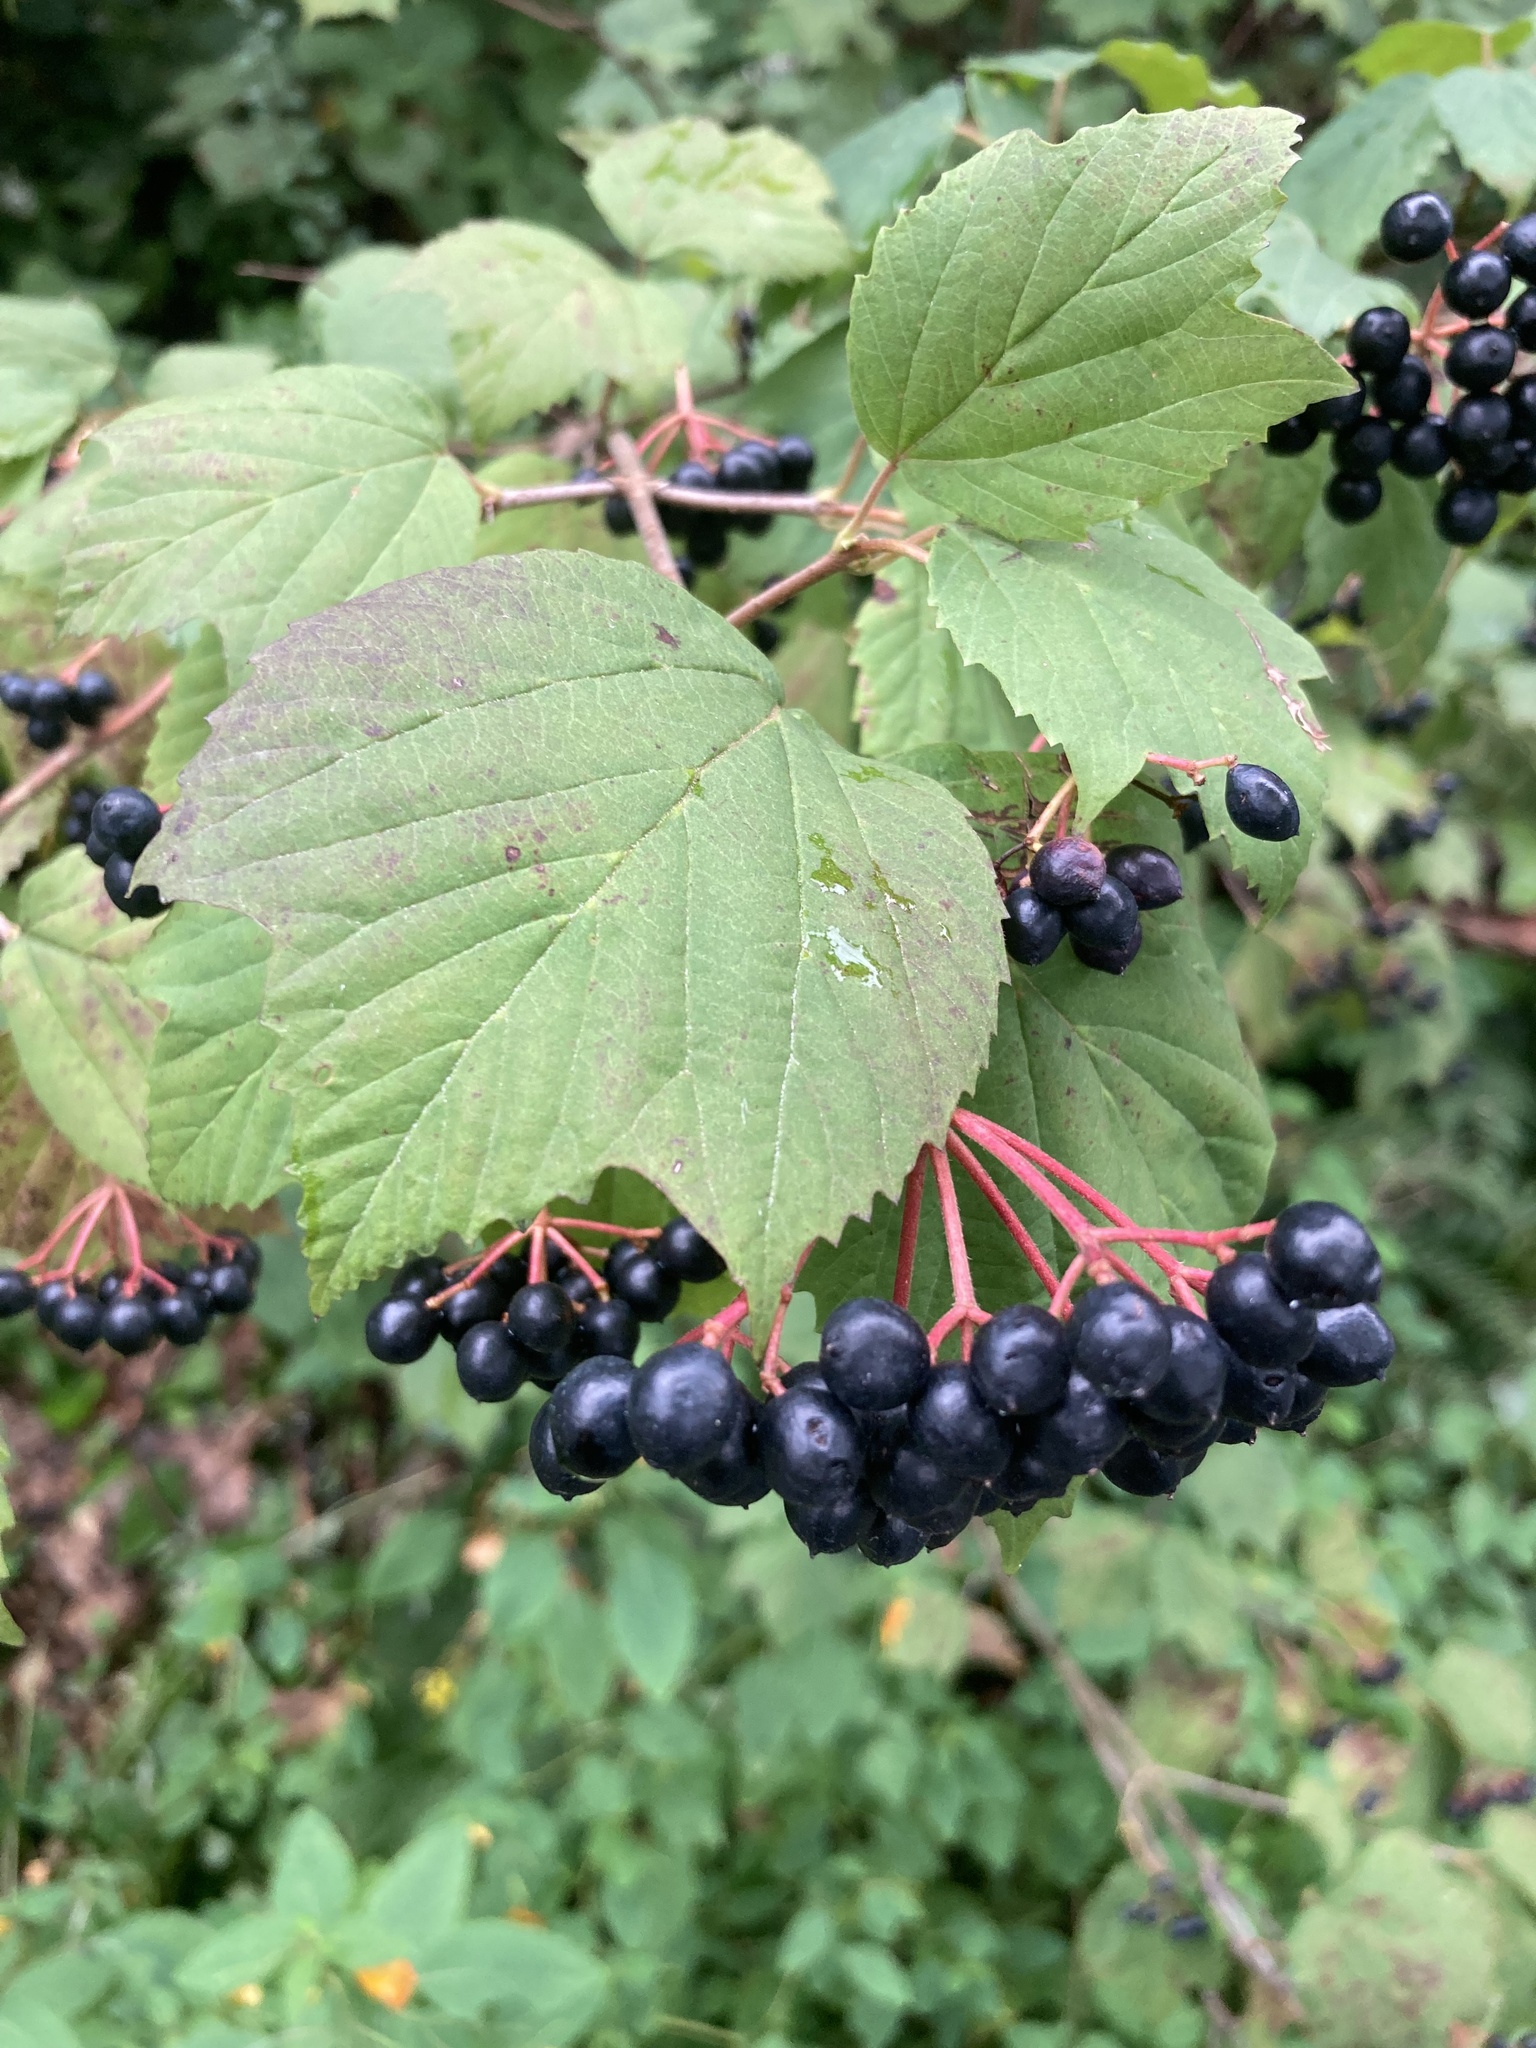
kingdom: Plantae
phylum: Tracheophyta
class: Magnoliopsida
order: Dipsacales
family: Viburnaceae
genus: Viburnum
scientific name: Viburnum acerifolium
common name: Dockmackie
